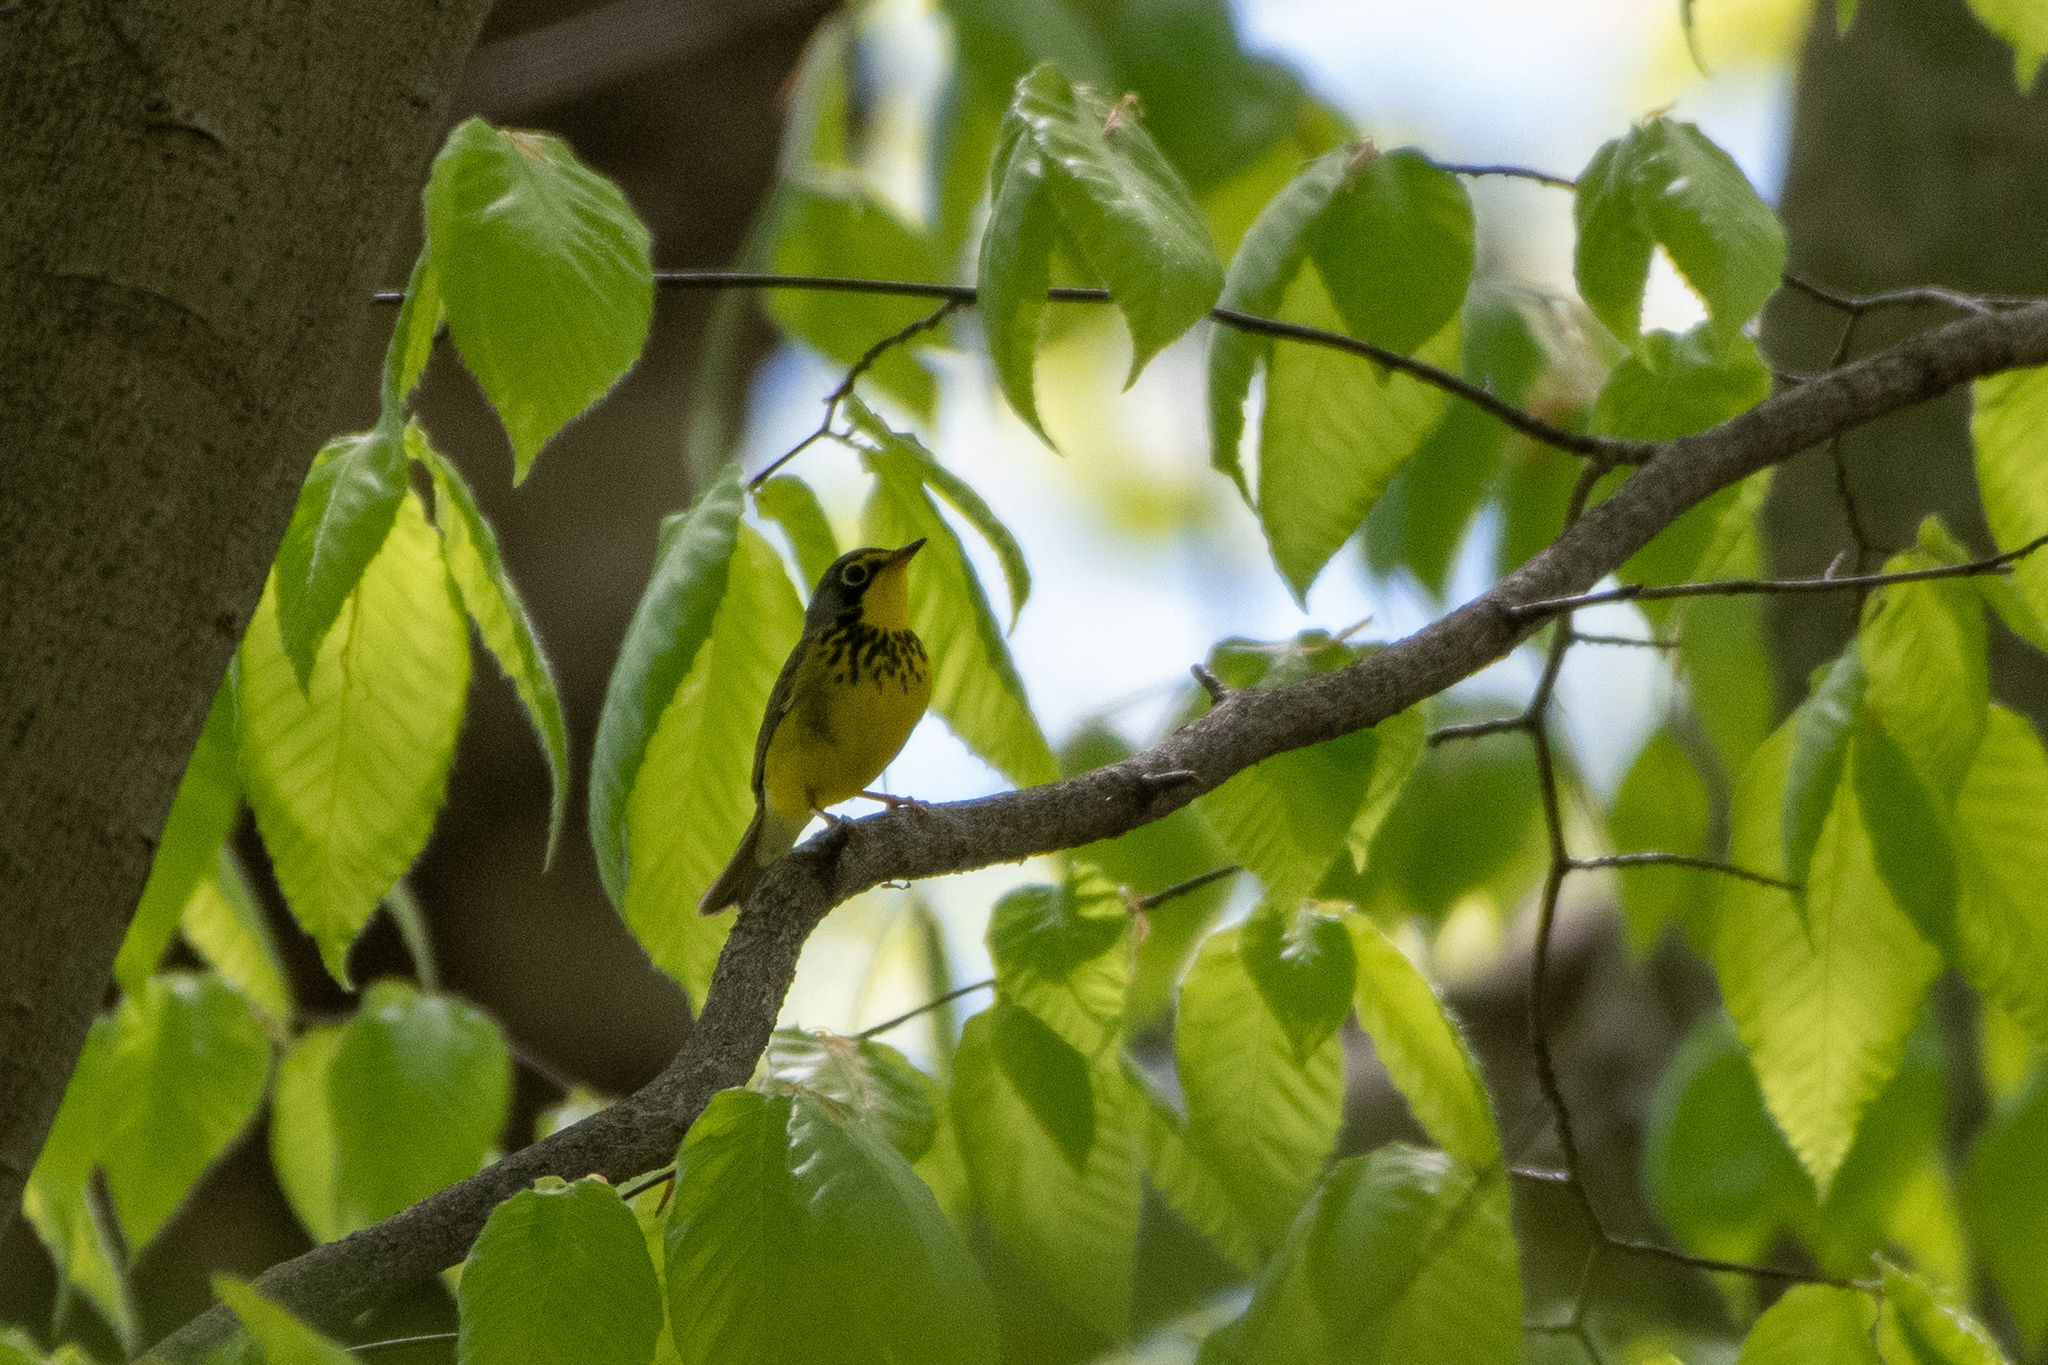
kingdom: Animalia
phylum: Chordata
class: Aves
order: Passeriformes
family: Parulidae
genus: Cardellina
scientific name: Cardellina canadensis
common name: Canada warbler
